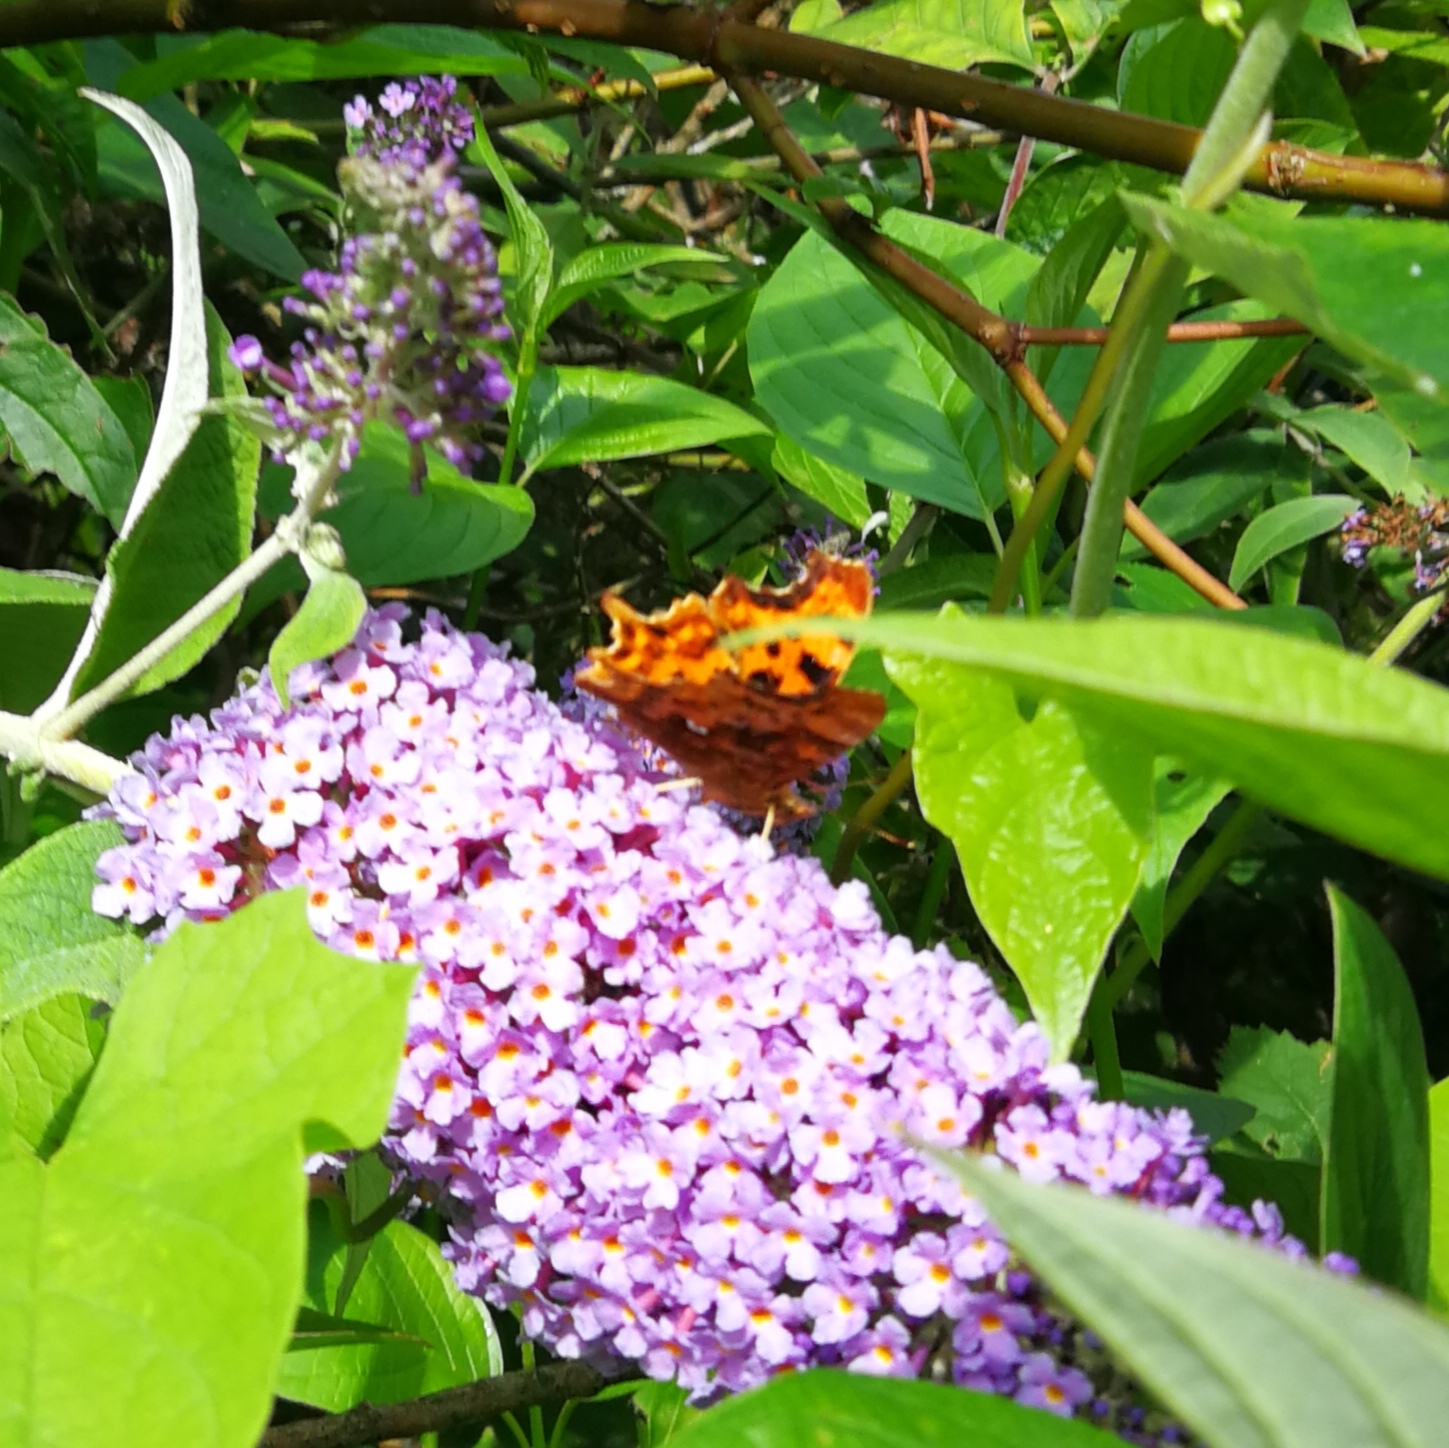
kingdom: Animalia
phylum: Arthropoda
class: Insecta
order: Lepidoptera
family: Nymphalidae
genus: Polygonia
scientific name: Polygonia c-album
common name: Comma
